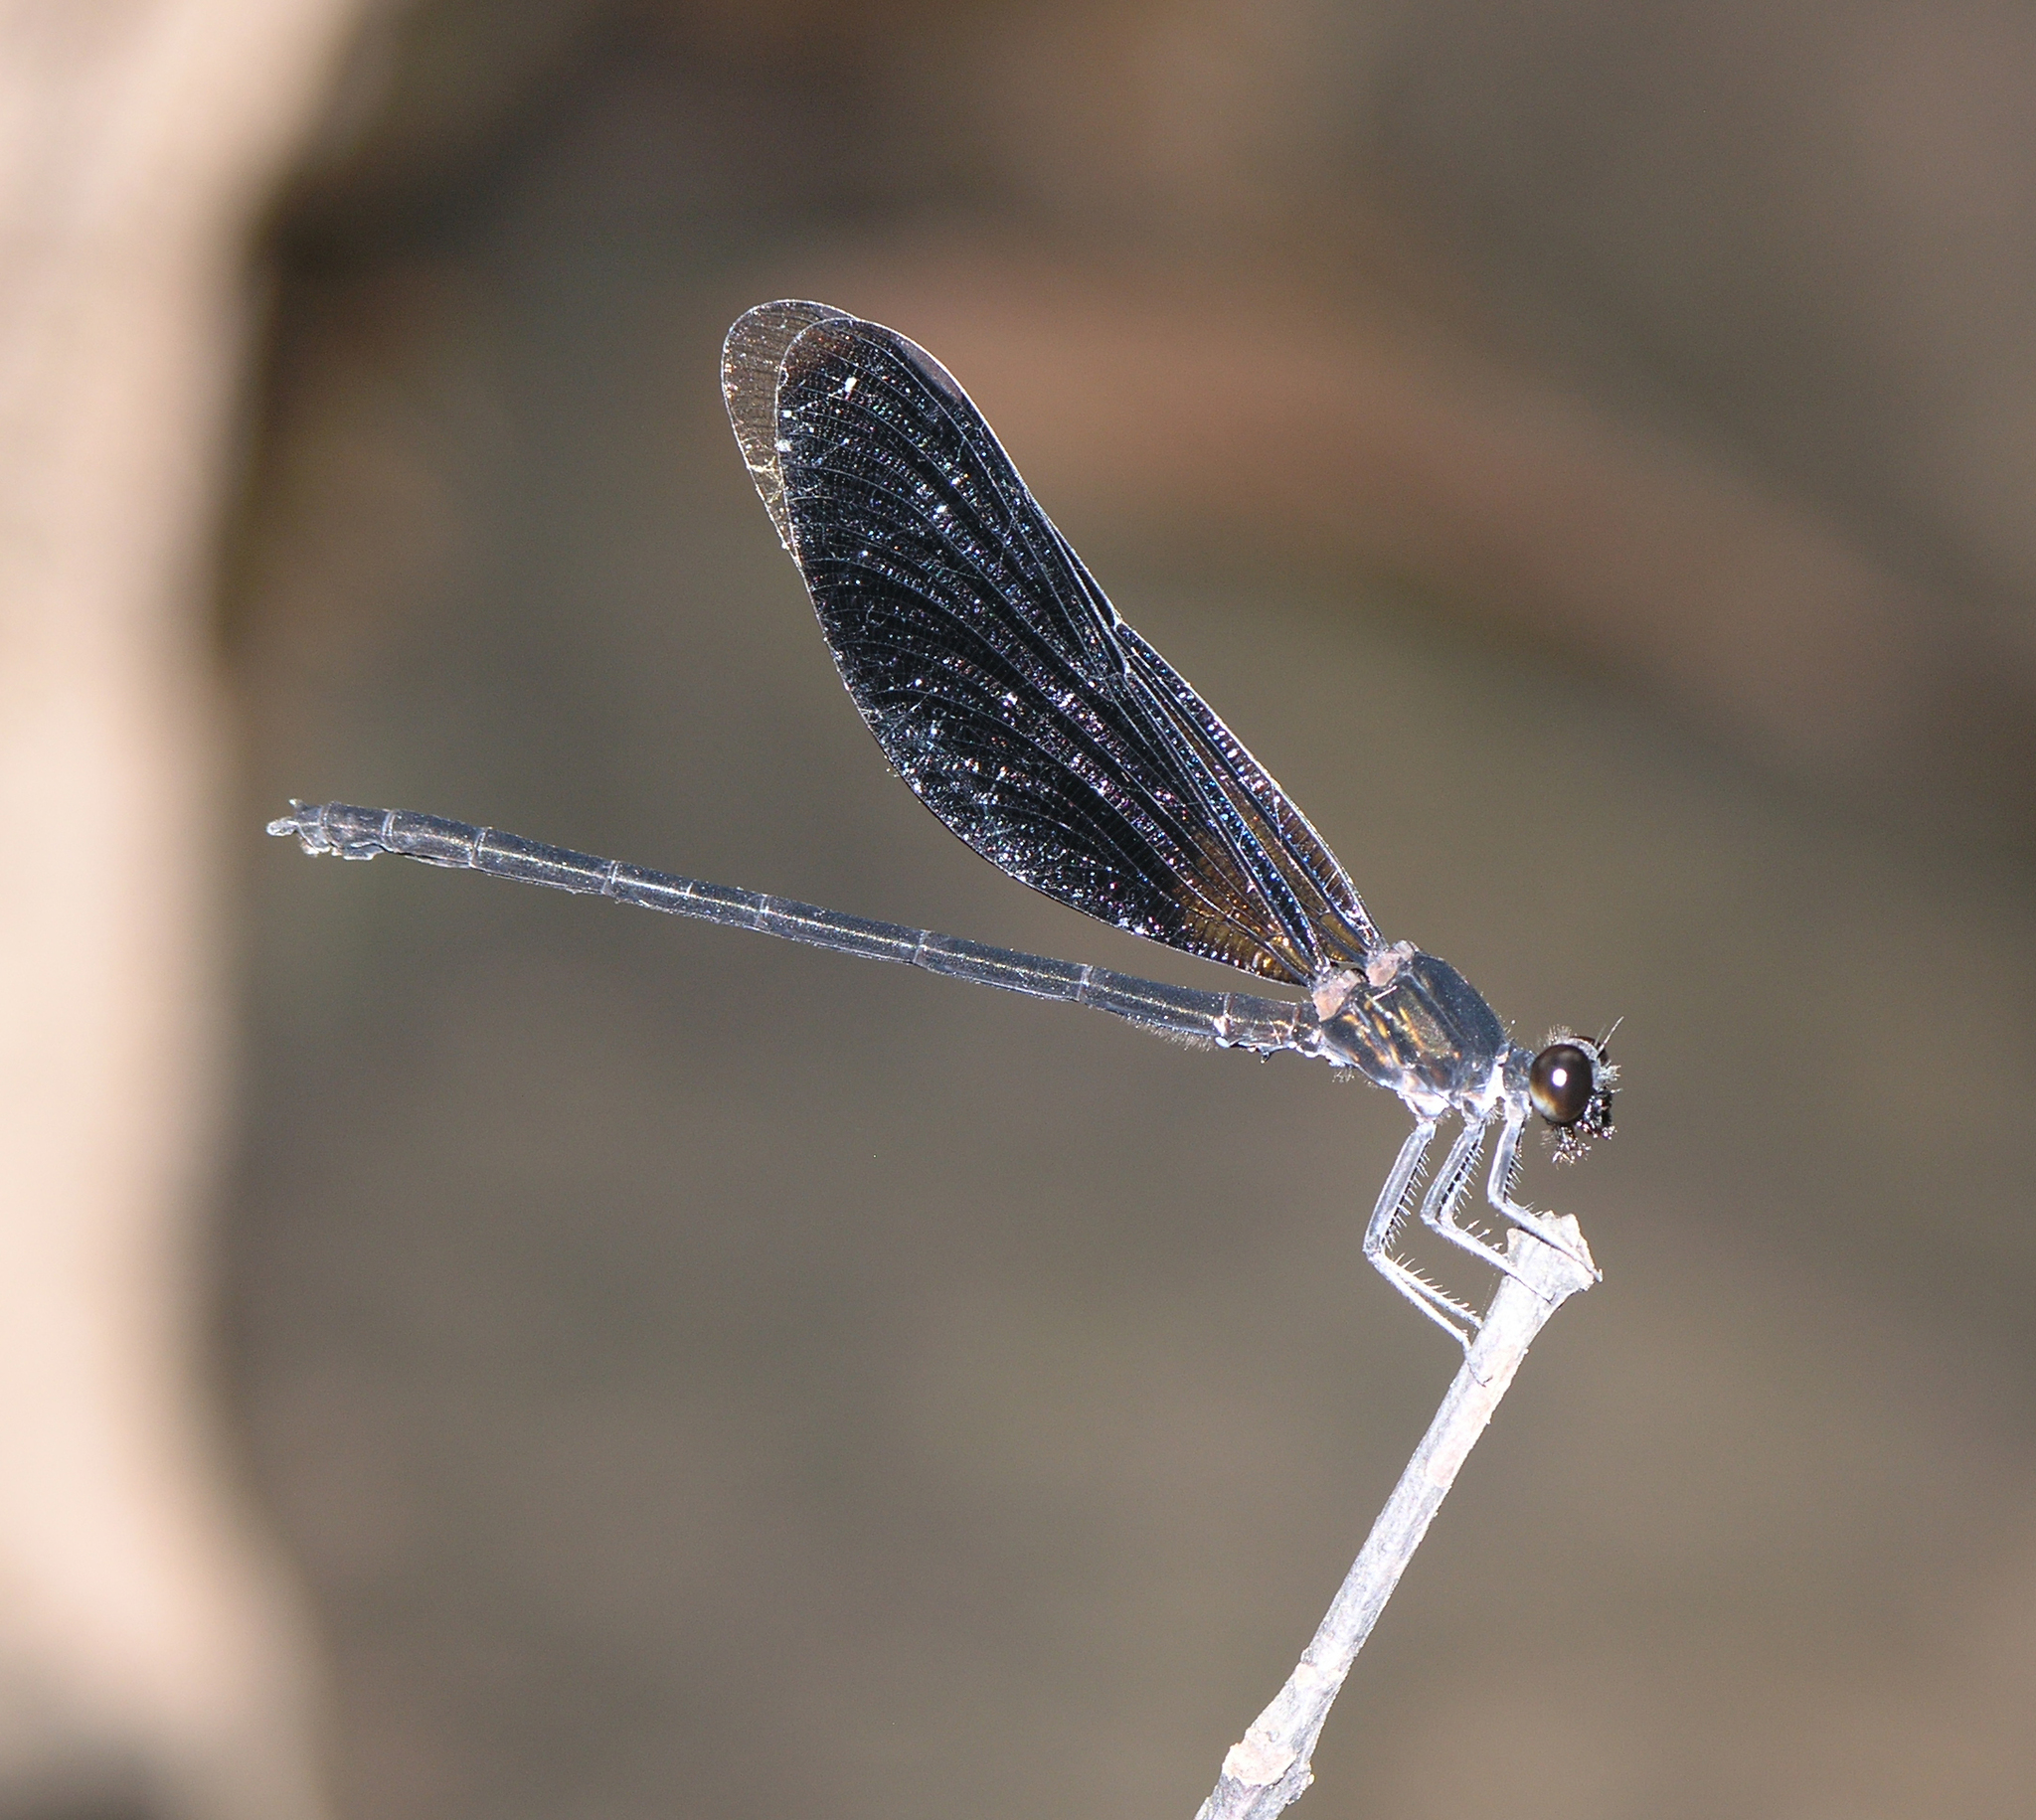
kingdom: Animalia
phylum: Arthropoda
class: Insecta
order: Odonata
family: Euphaeidae
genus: Euphaea
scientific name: Euphaea masoni
